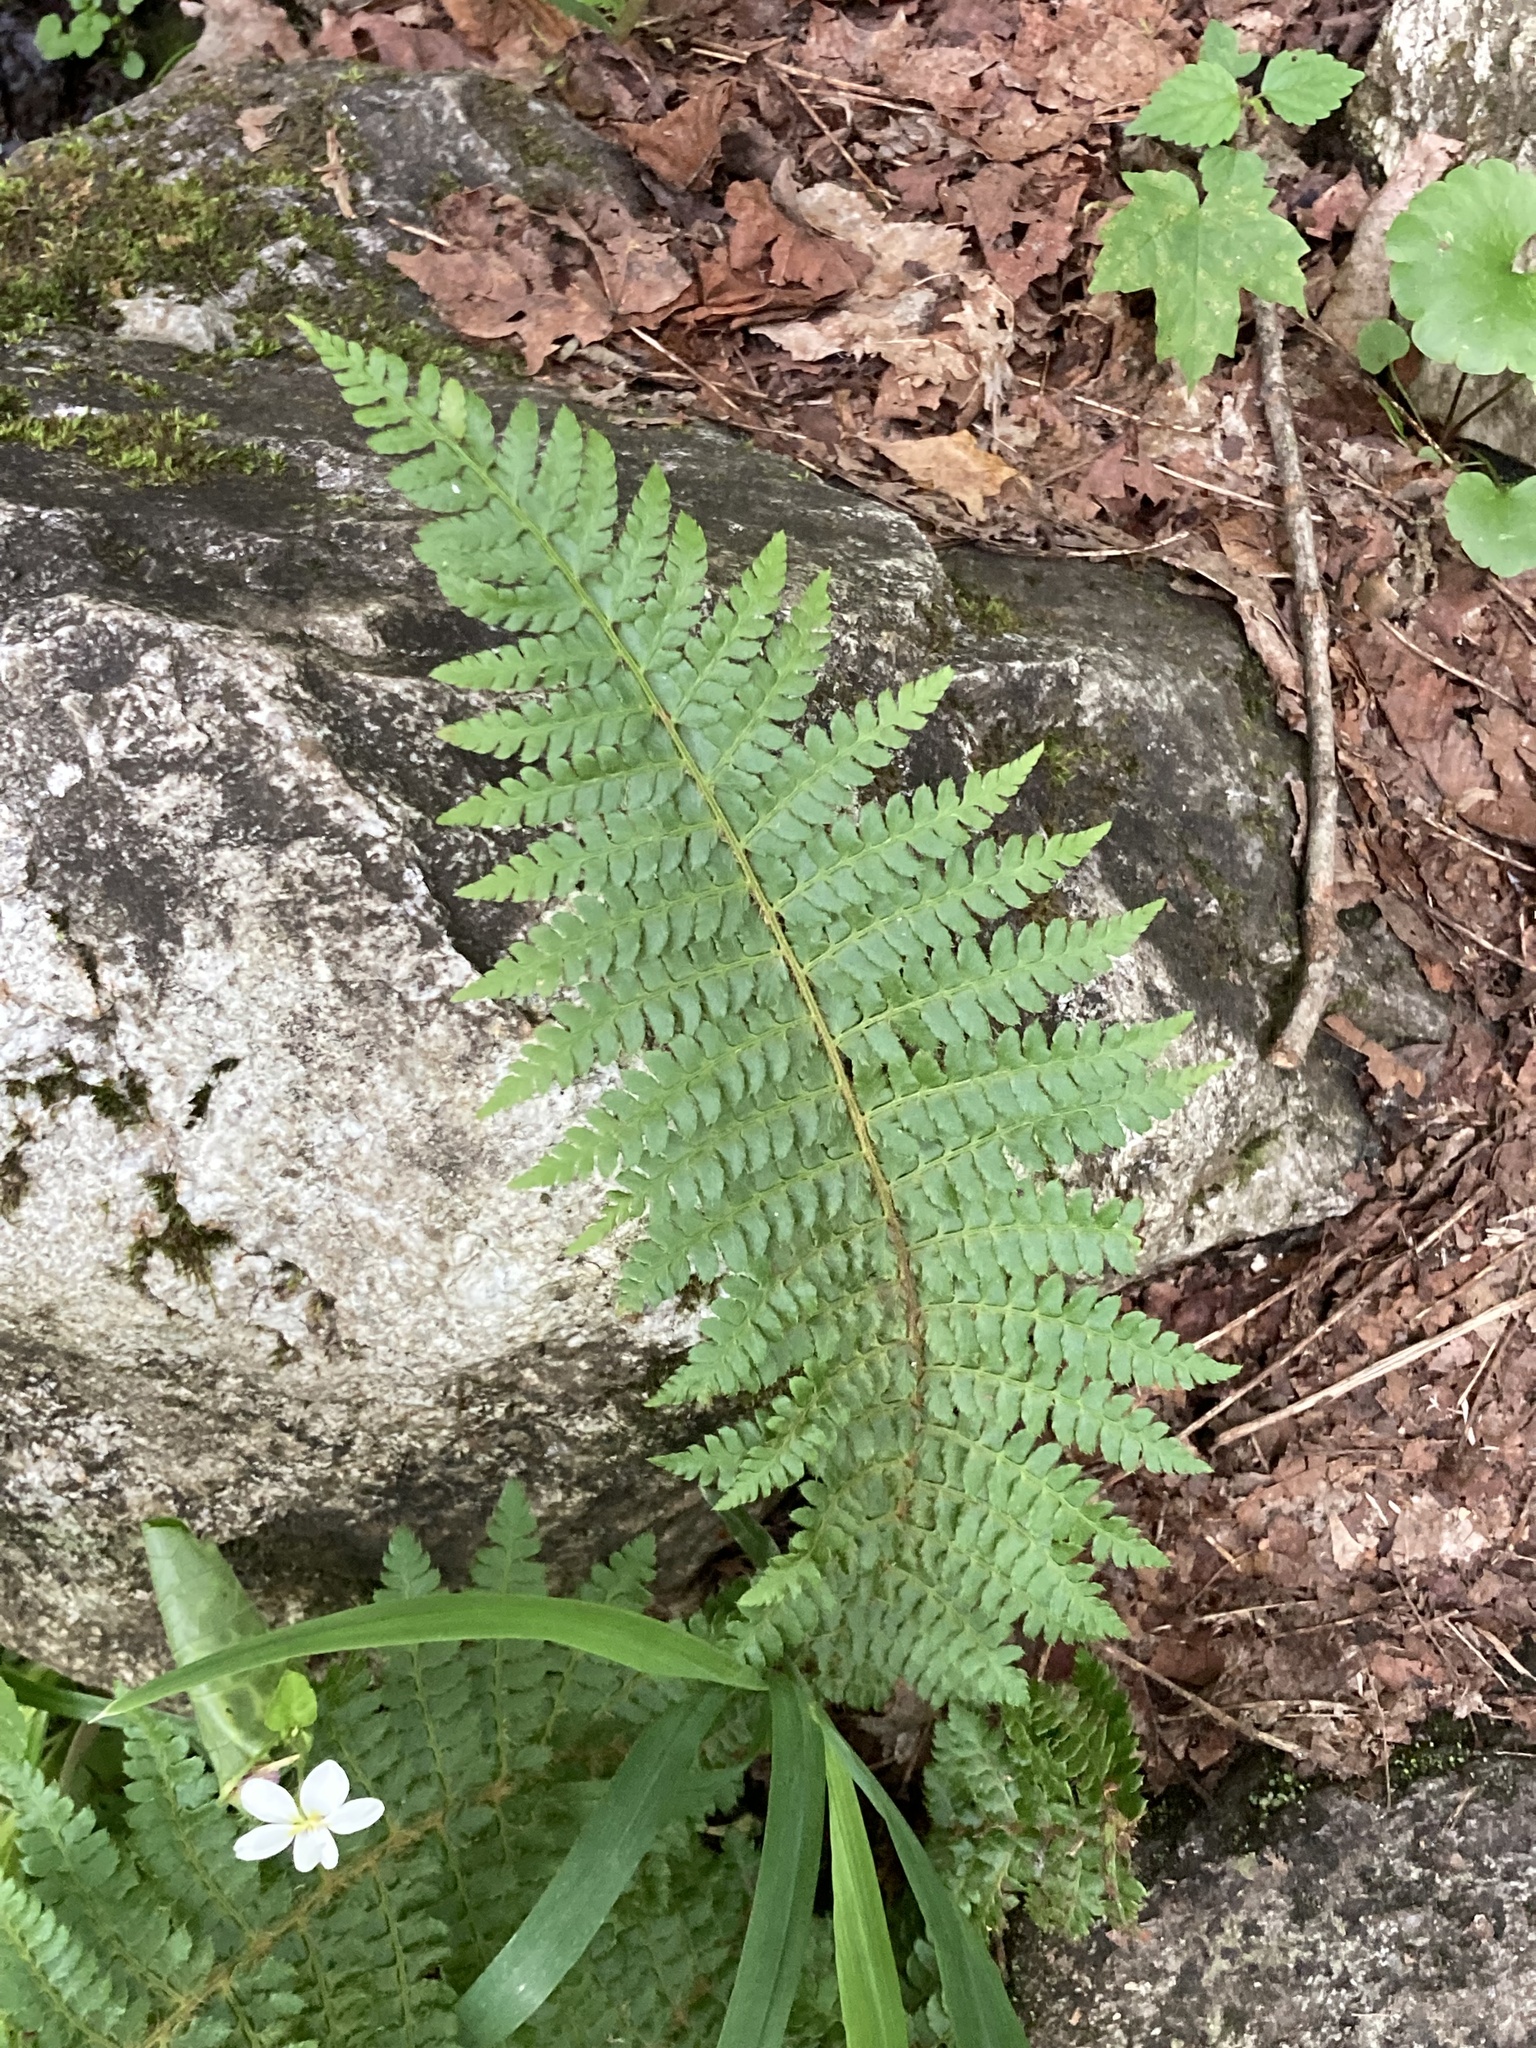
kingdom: Plantae
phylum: Tracheophyta
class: Polypodiopsida
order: Polypodiales
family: Dryopteridaceae
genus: Polystichum
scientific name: Polystichum braunii
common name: Braun's holly fern
